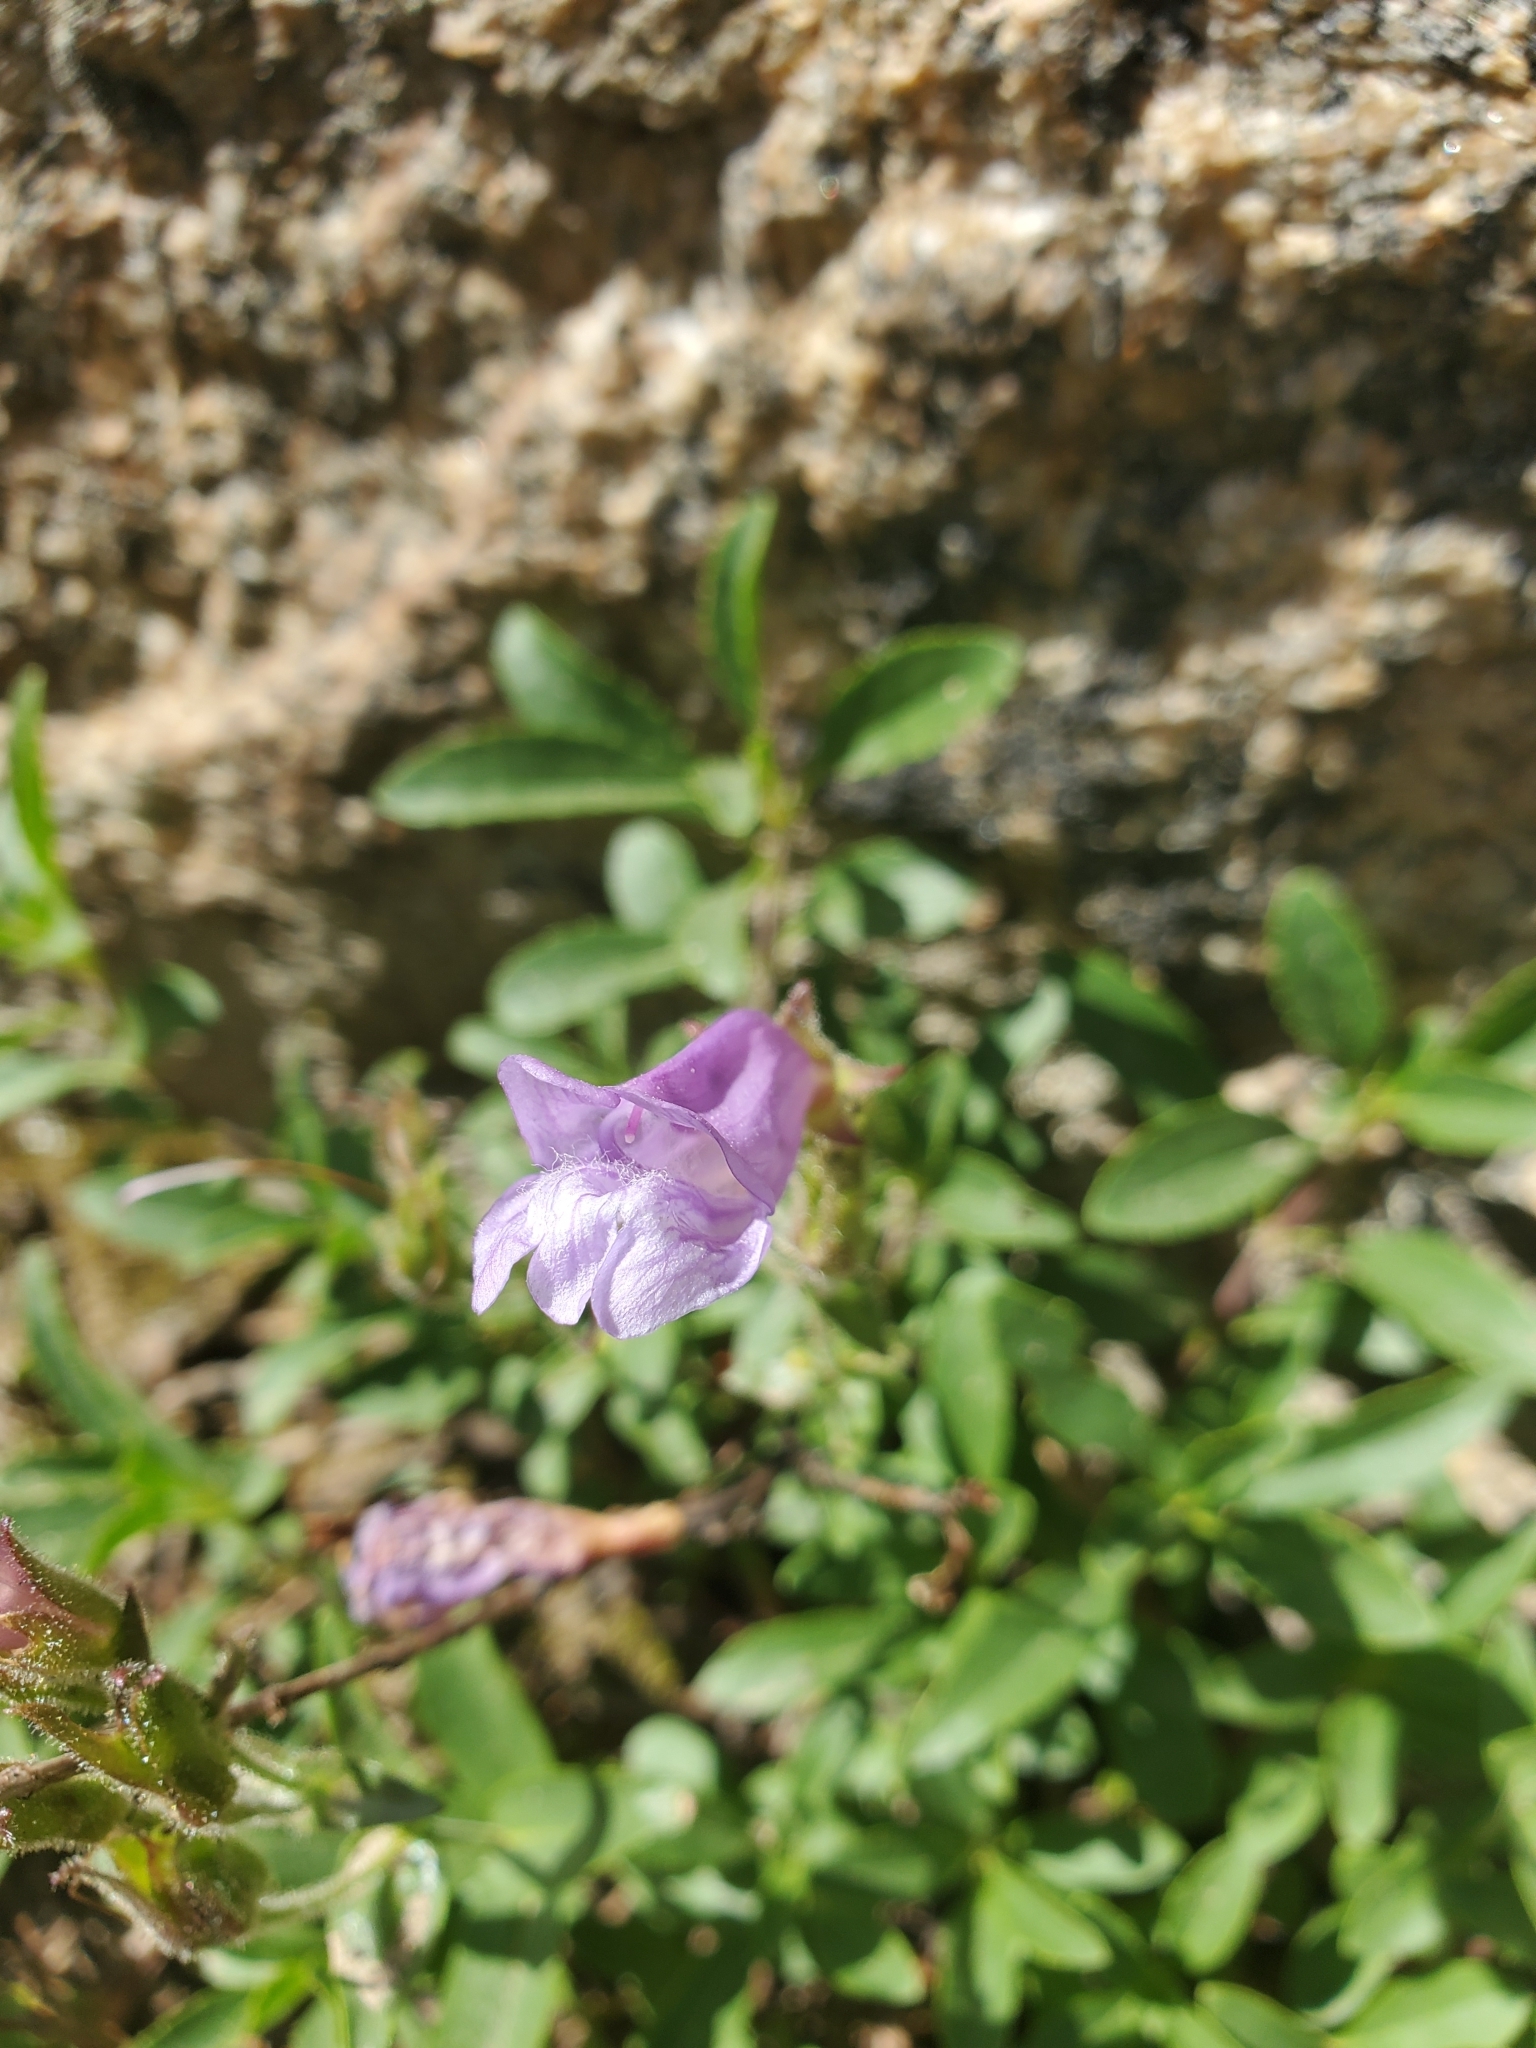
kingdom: Plantae
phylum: Tracheophyta
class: Magnoliopsida
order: Lamiales
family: Plantaginaceae
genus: Penstemon
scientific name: Penstemon ellipticus
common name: Alpine beardtongue
